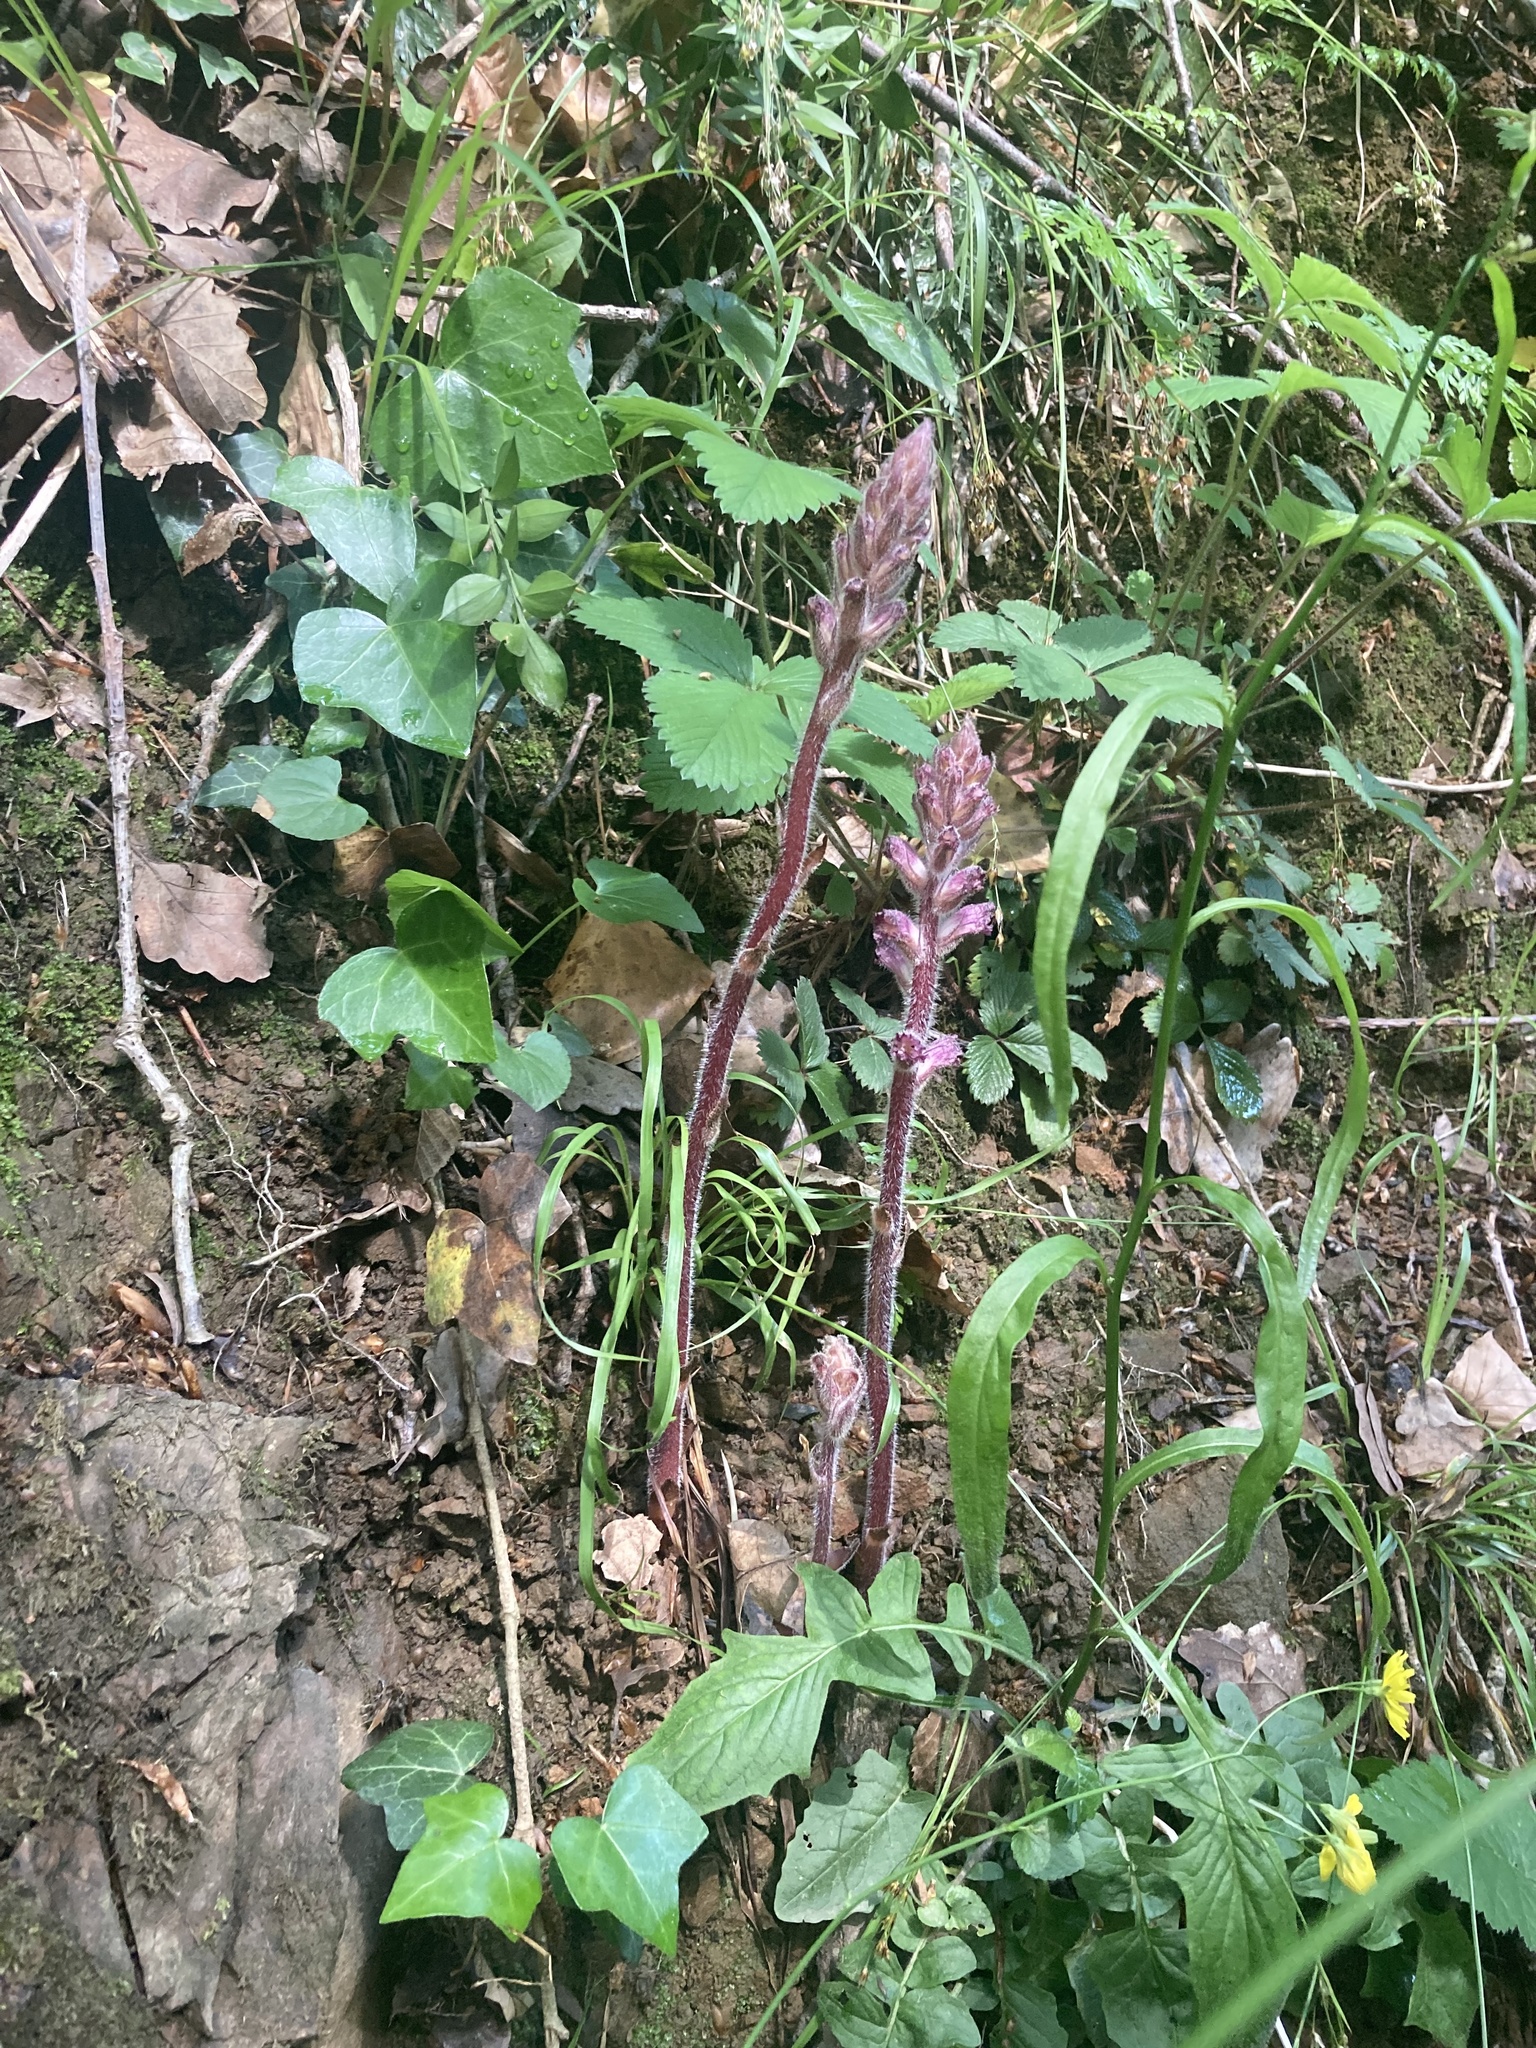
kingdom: Plantae
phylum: Tracheophyta
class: Magnoliopsida
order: Lamiales
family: Orobanchaceae
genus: Orobanche
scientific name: Orobanche pubescens
